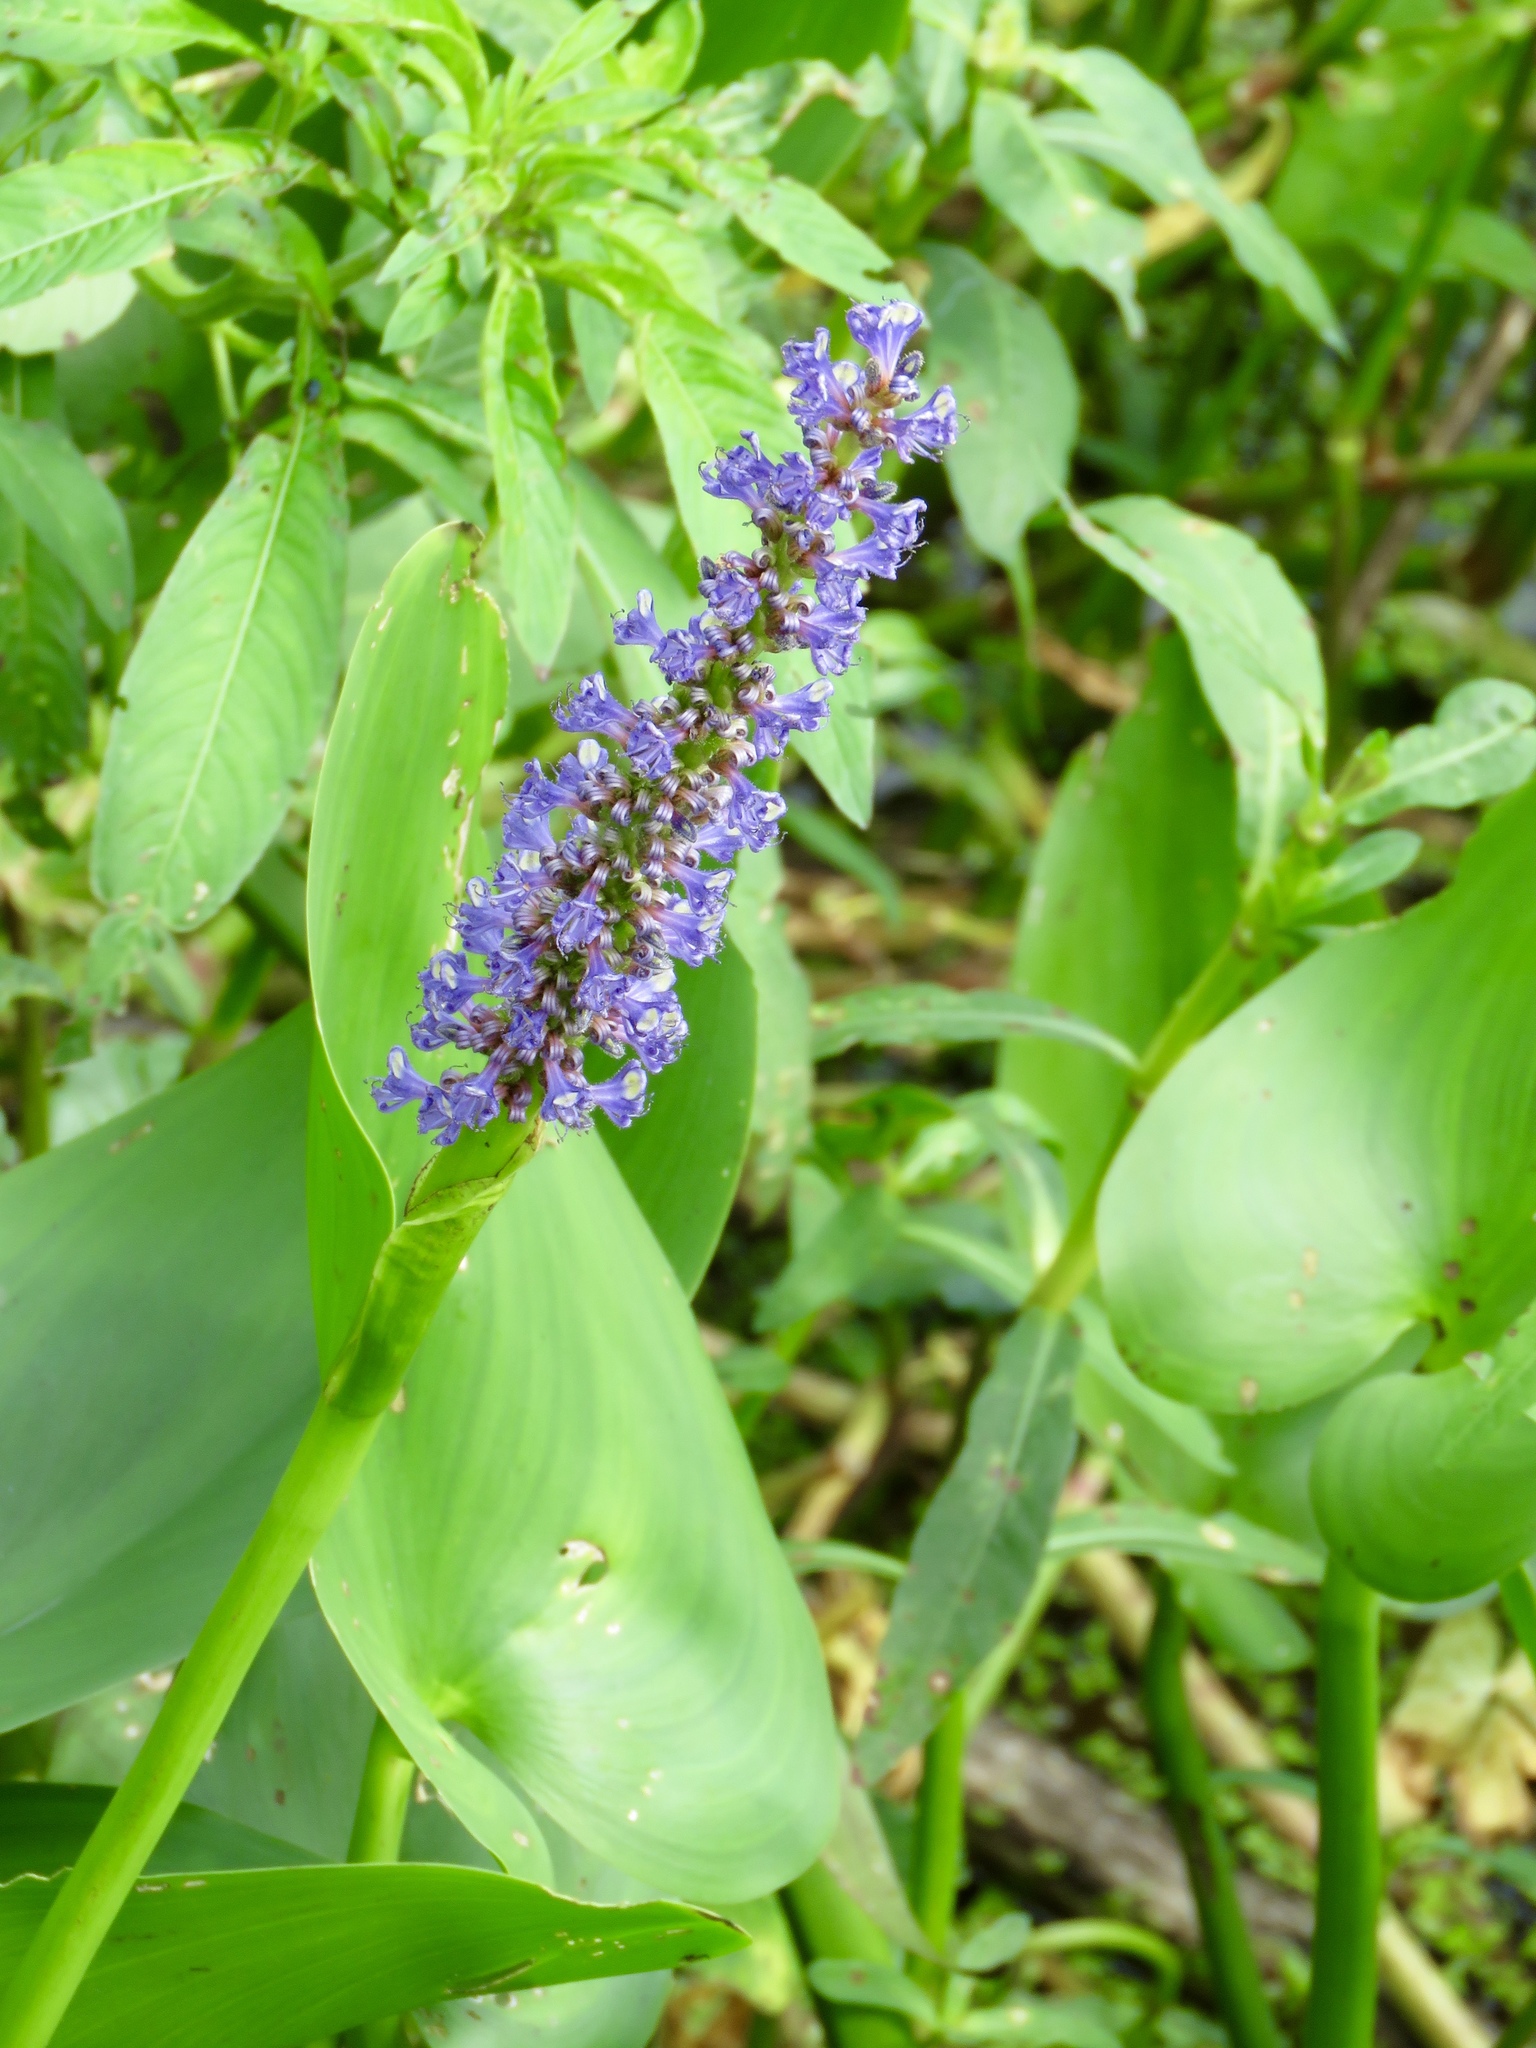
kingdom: Plantae
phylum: Tracheophyta
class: Liliopsida
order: Commelinales
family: Pontederiaceae
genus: Pontederia
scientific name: Pontederia cordata
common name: Pickerelweed
